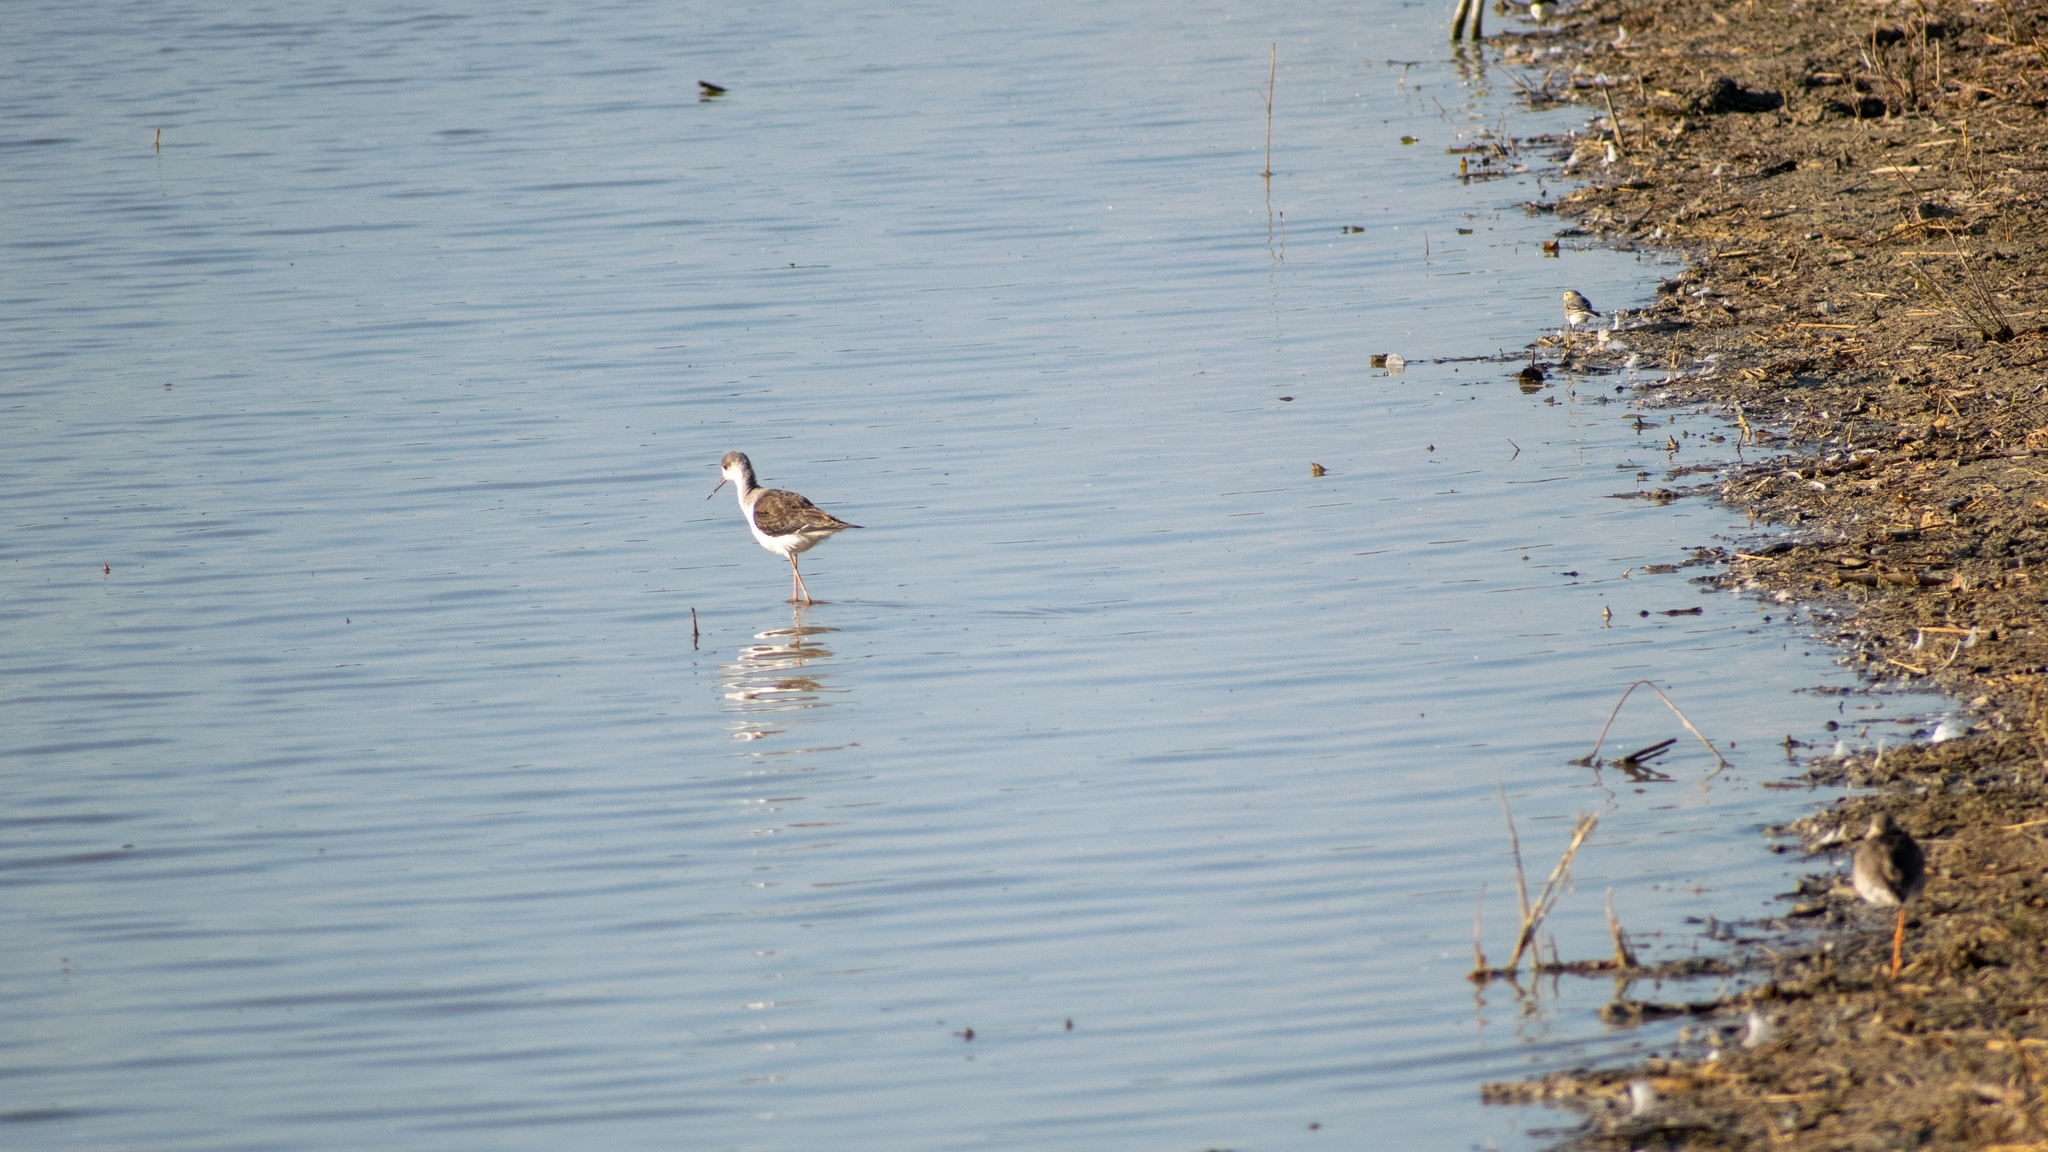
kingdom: Animalia
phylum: Chordata
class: Aves
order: Charadriiformes
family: Recurvirostridae
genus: Himantopus
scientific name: Himantopus himantopus
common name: Black-winged stilt
